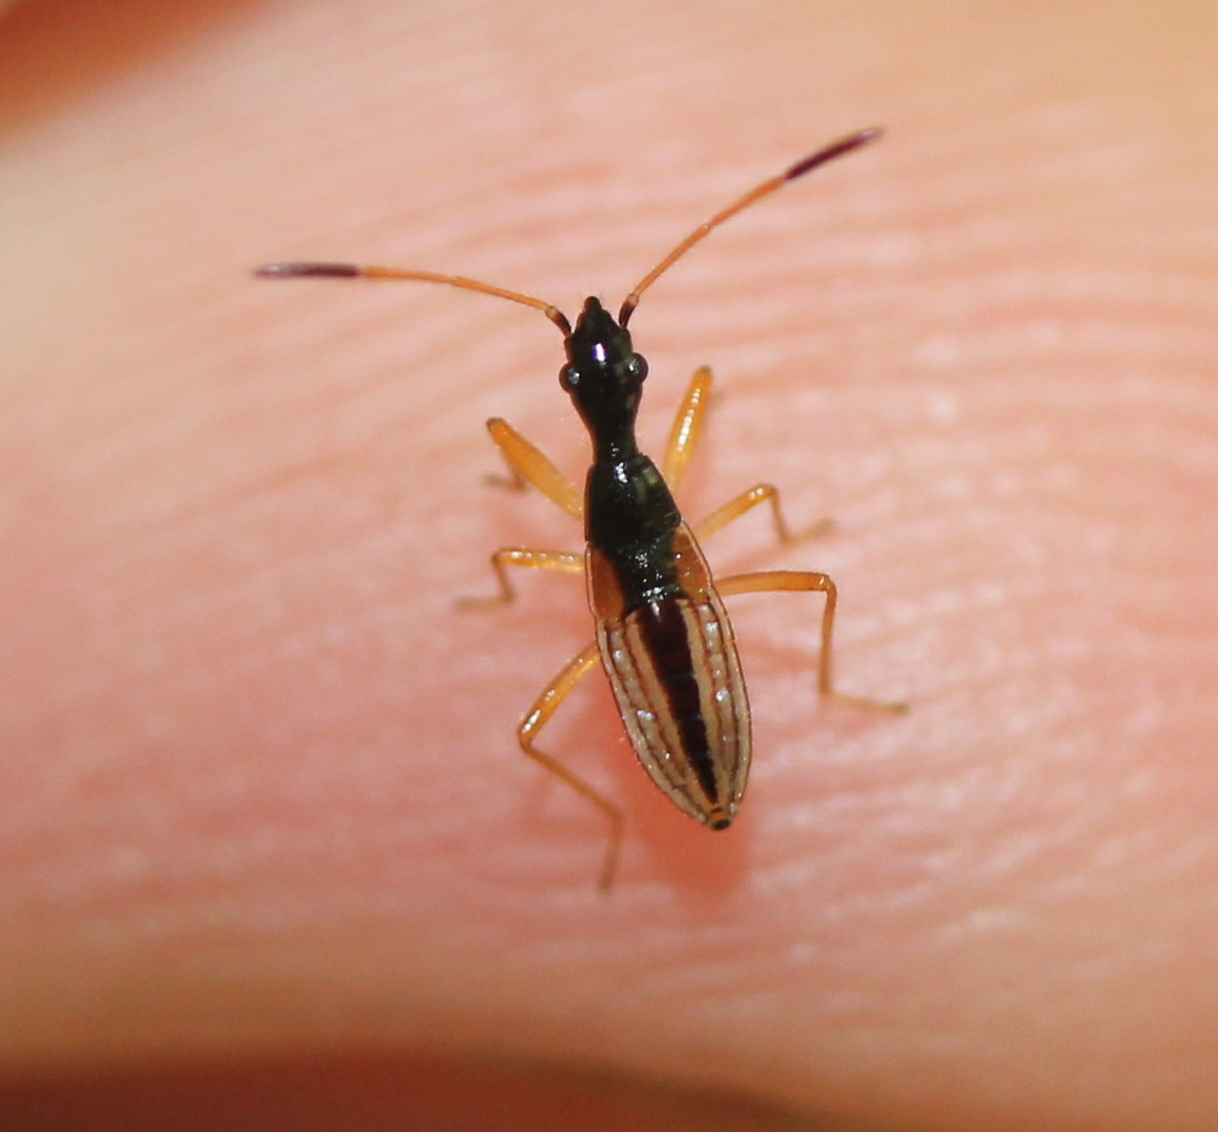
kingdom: Animalia
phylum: Arthropoda
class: Insecta
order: Hemiptera
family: Rhyparochromidae
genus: Myodocha
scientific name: Myodocha serripes
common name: Long-necked seed bug
